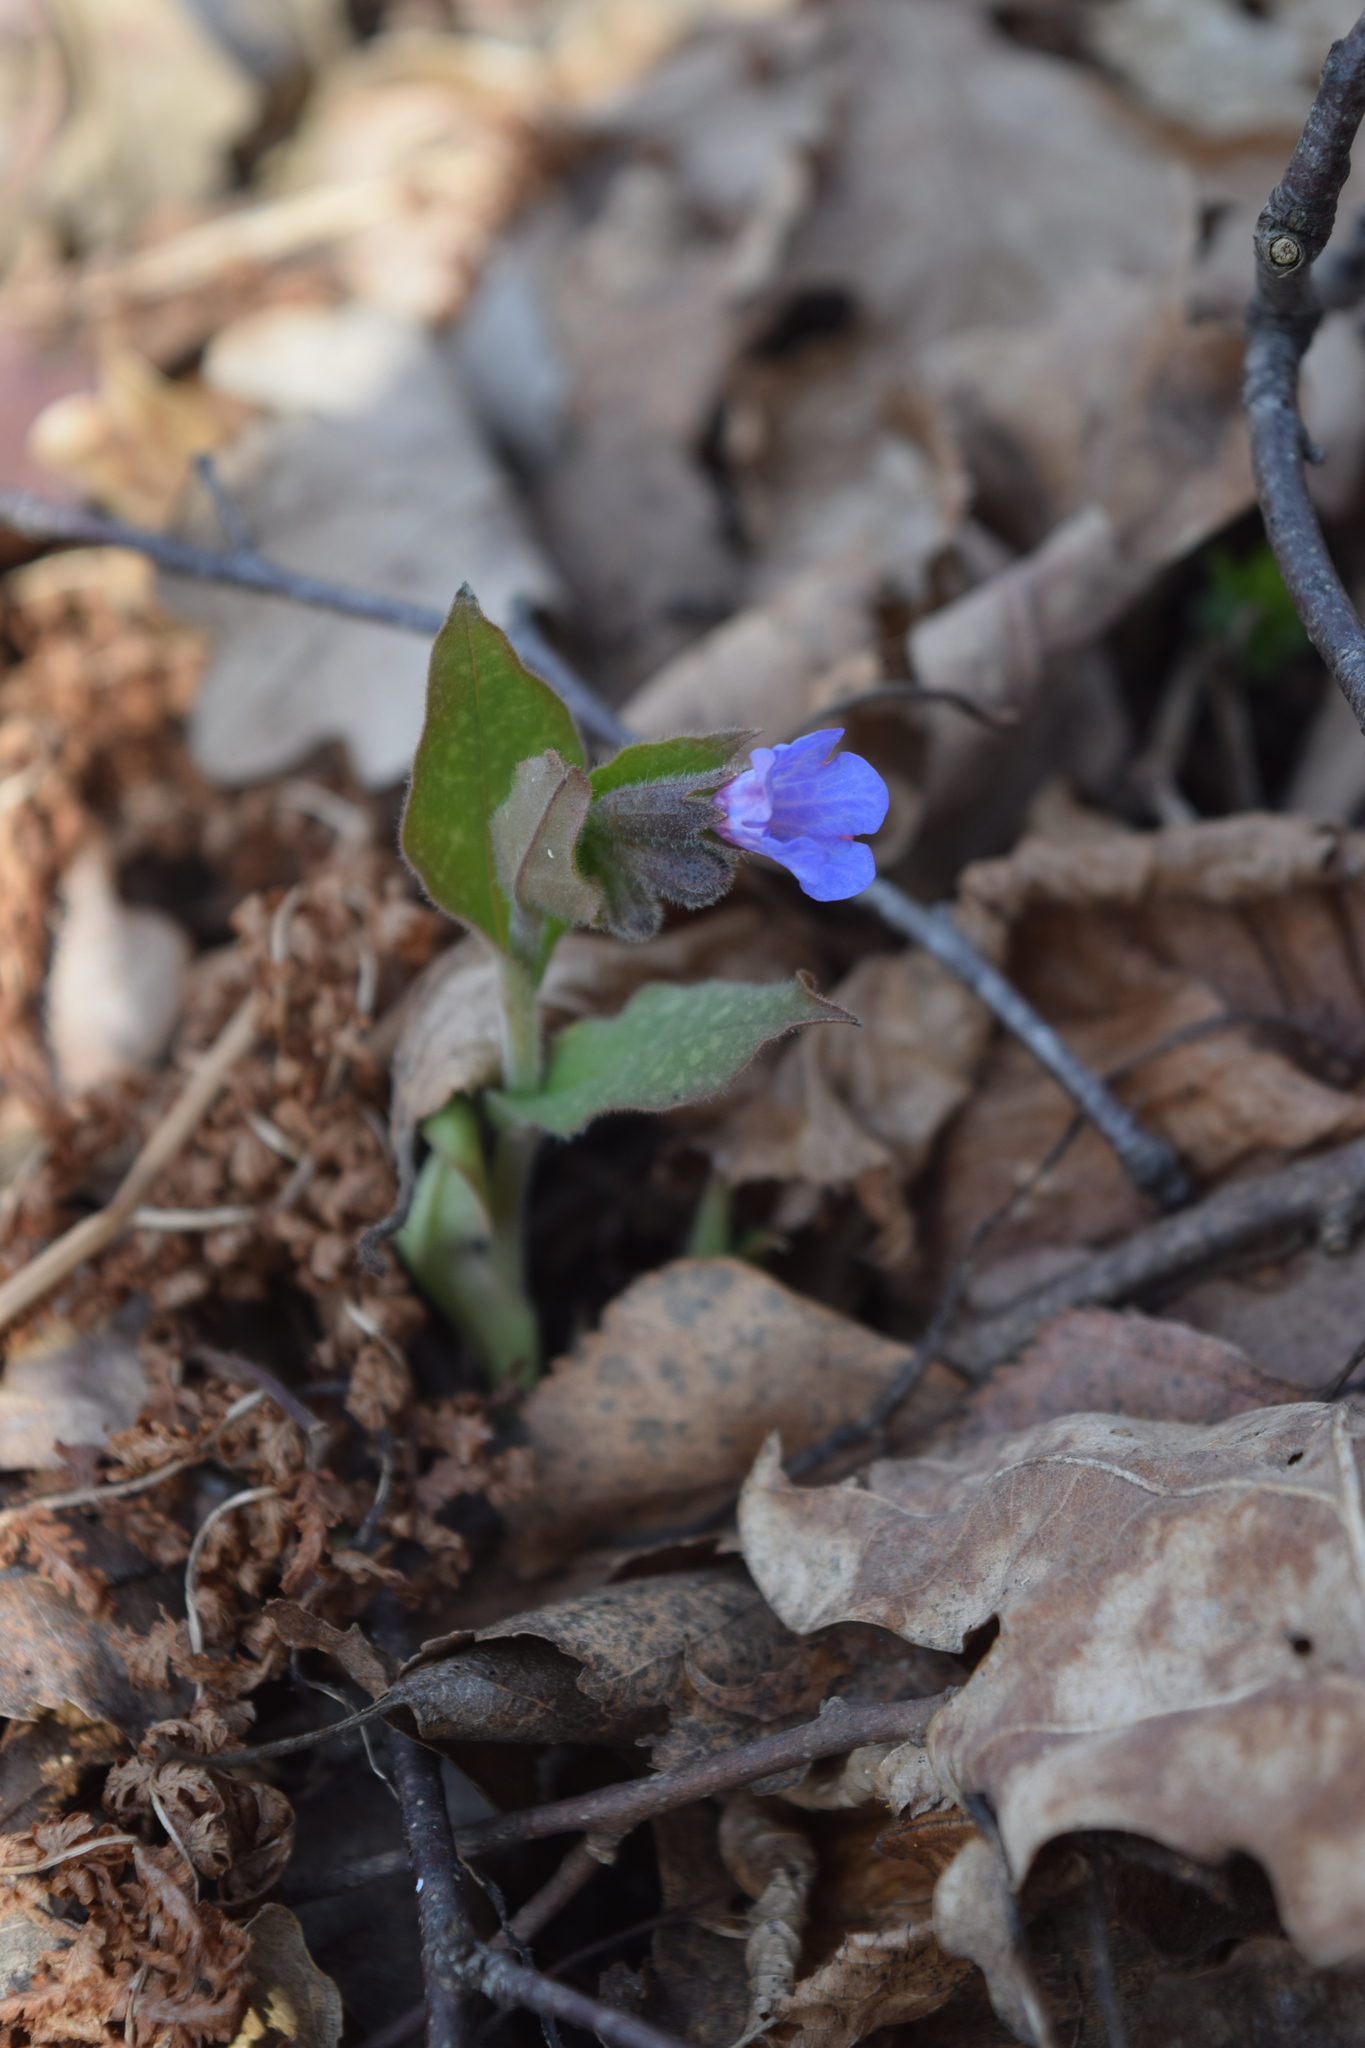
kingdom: Plantae
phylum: Tracheophyta
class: Magnoliopsida
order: Boraginales
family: Boraginaceae
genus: Pulmonaria
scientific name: Pulmonaria obscura
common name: Suffolk lungwort
